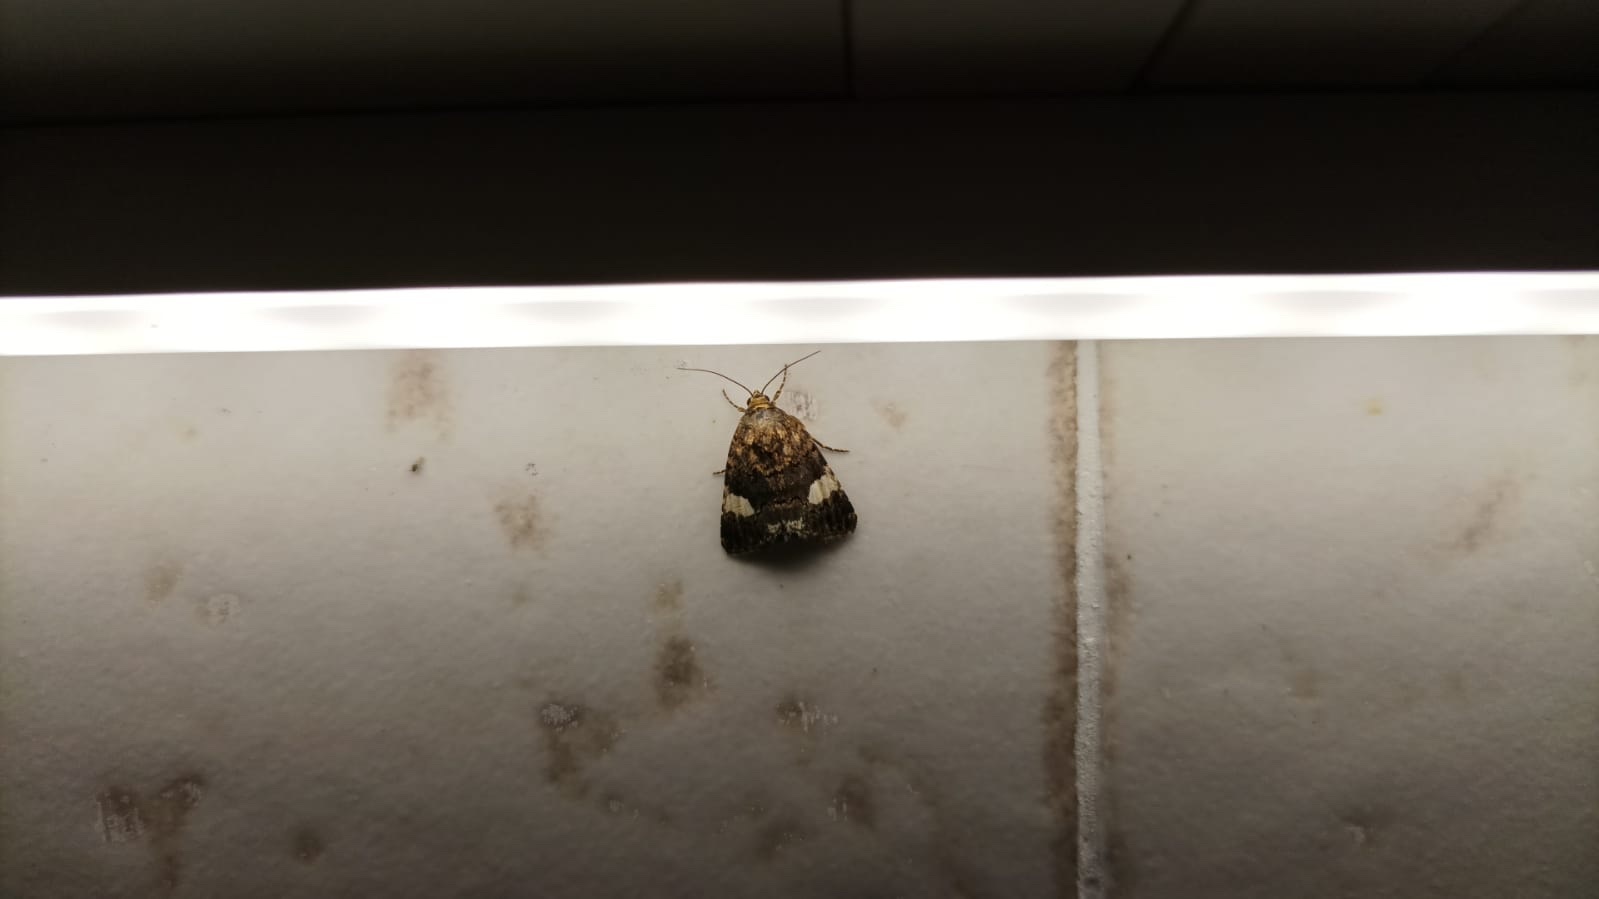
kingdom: Animalia
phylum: Arthropoda
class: Insecta
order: Lepidoptera
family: Erebidae
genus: Tyta
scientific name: Tyta luctuosa
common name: Four-spotted
